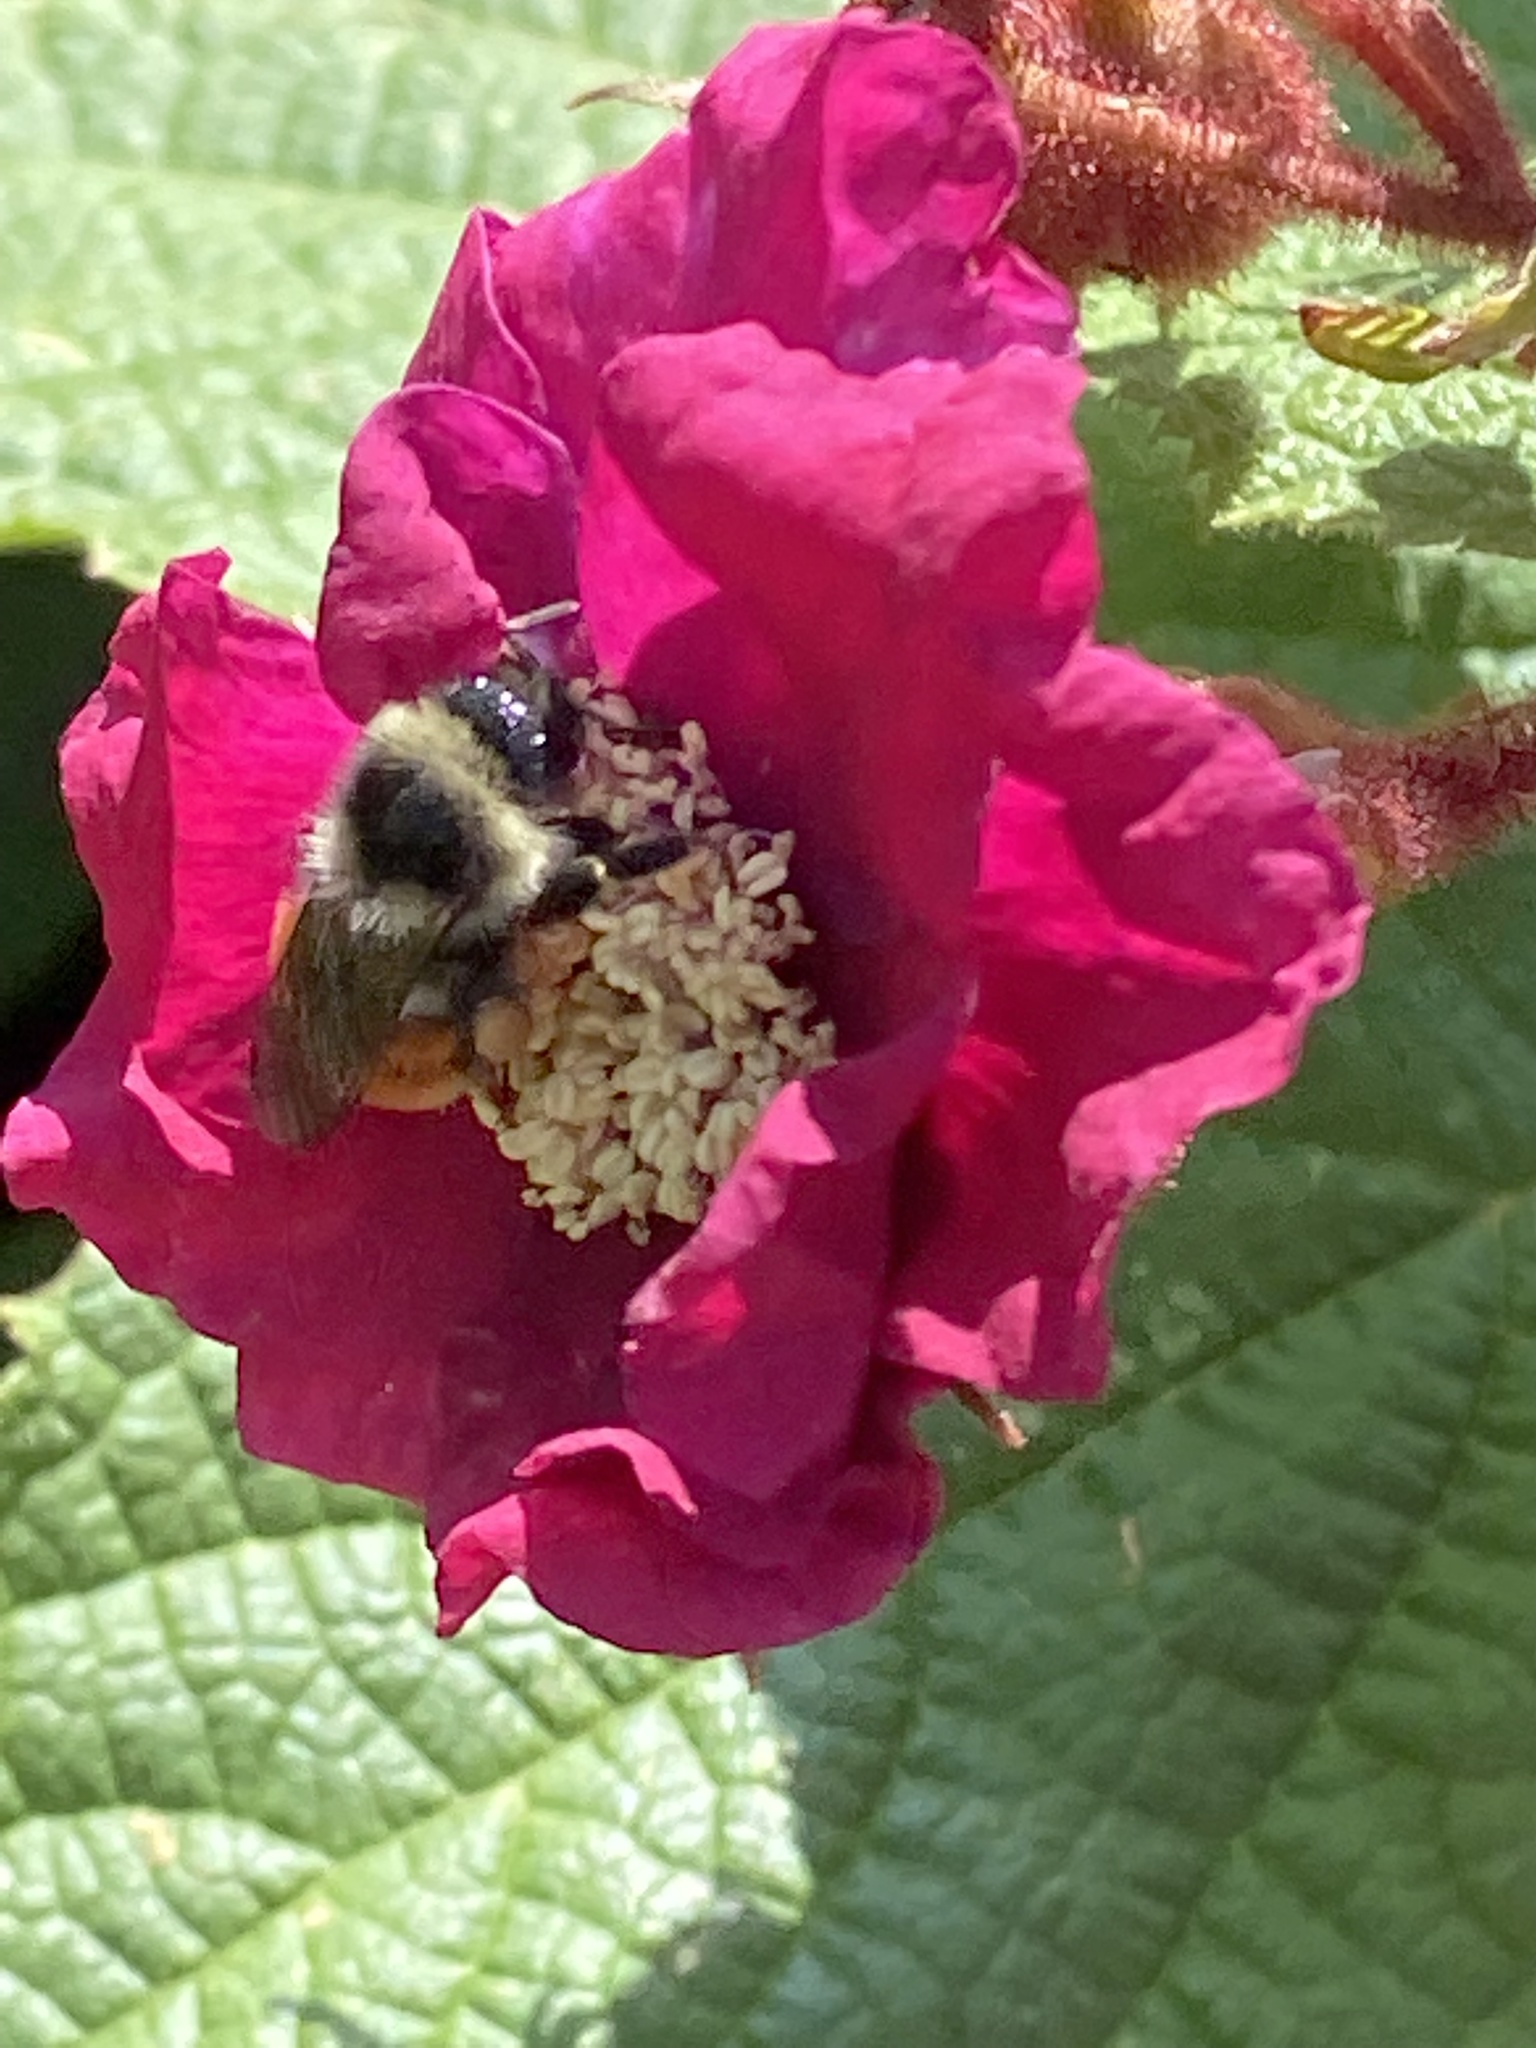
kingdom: Animalia
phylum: Arthropoda
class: Insecta
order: Hymenoptera
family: Apidae
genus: Bombus
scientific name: Bombus ternarius
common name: Tri-colored bumble bee
